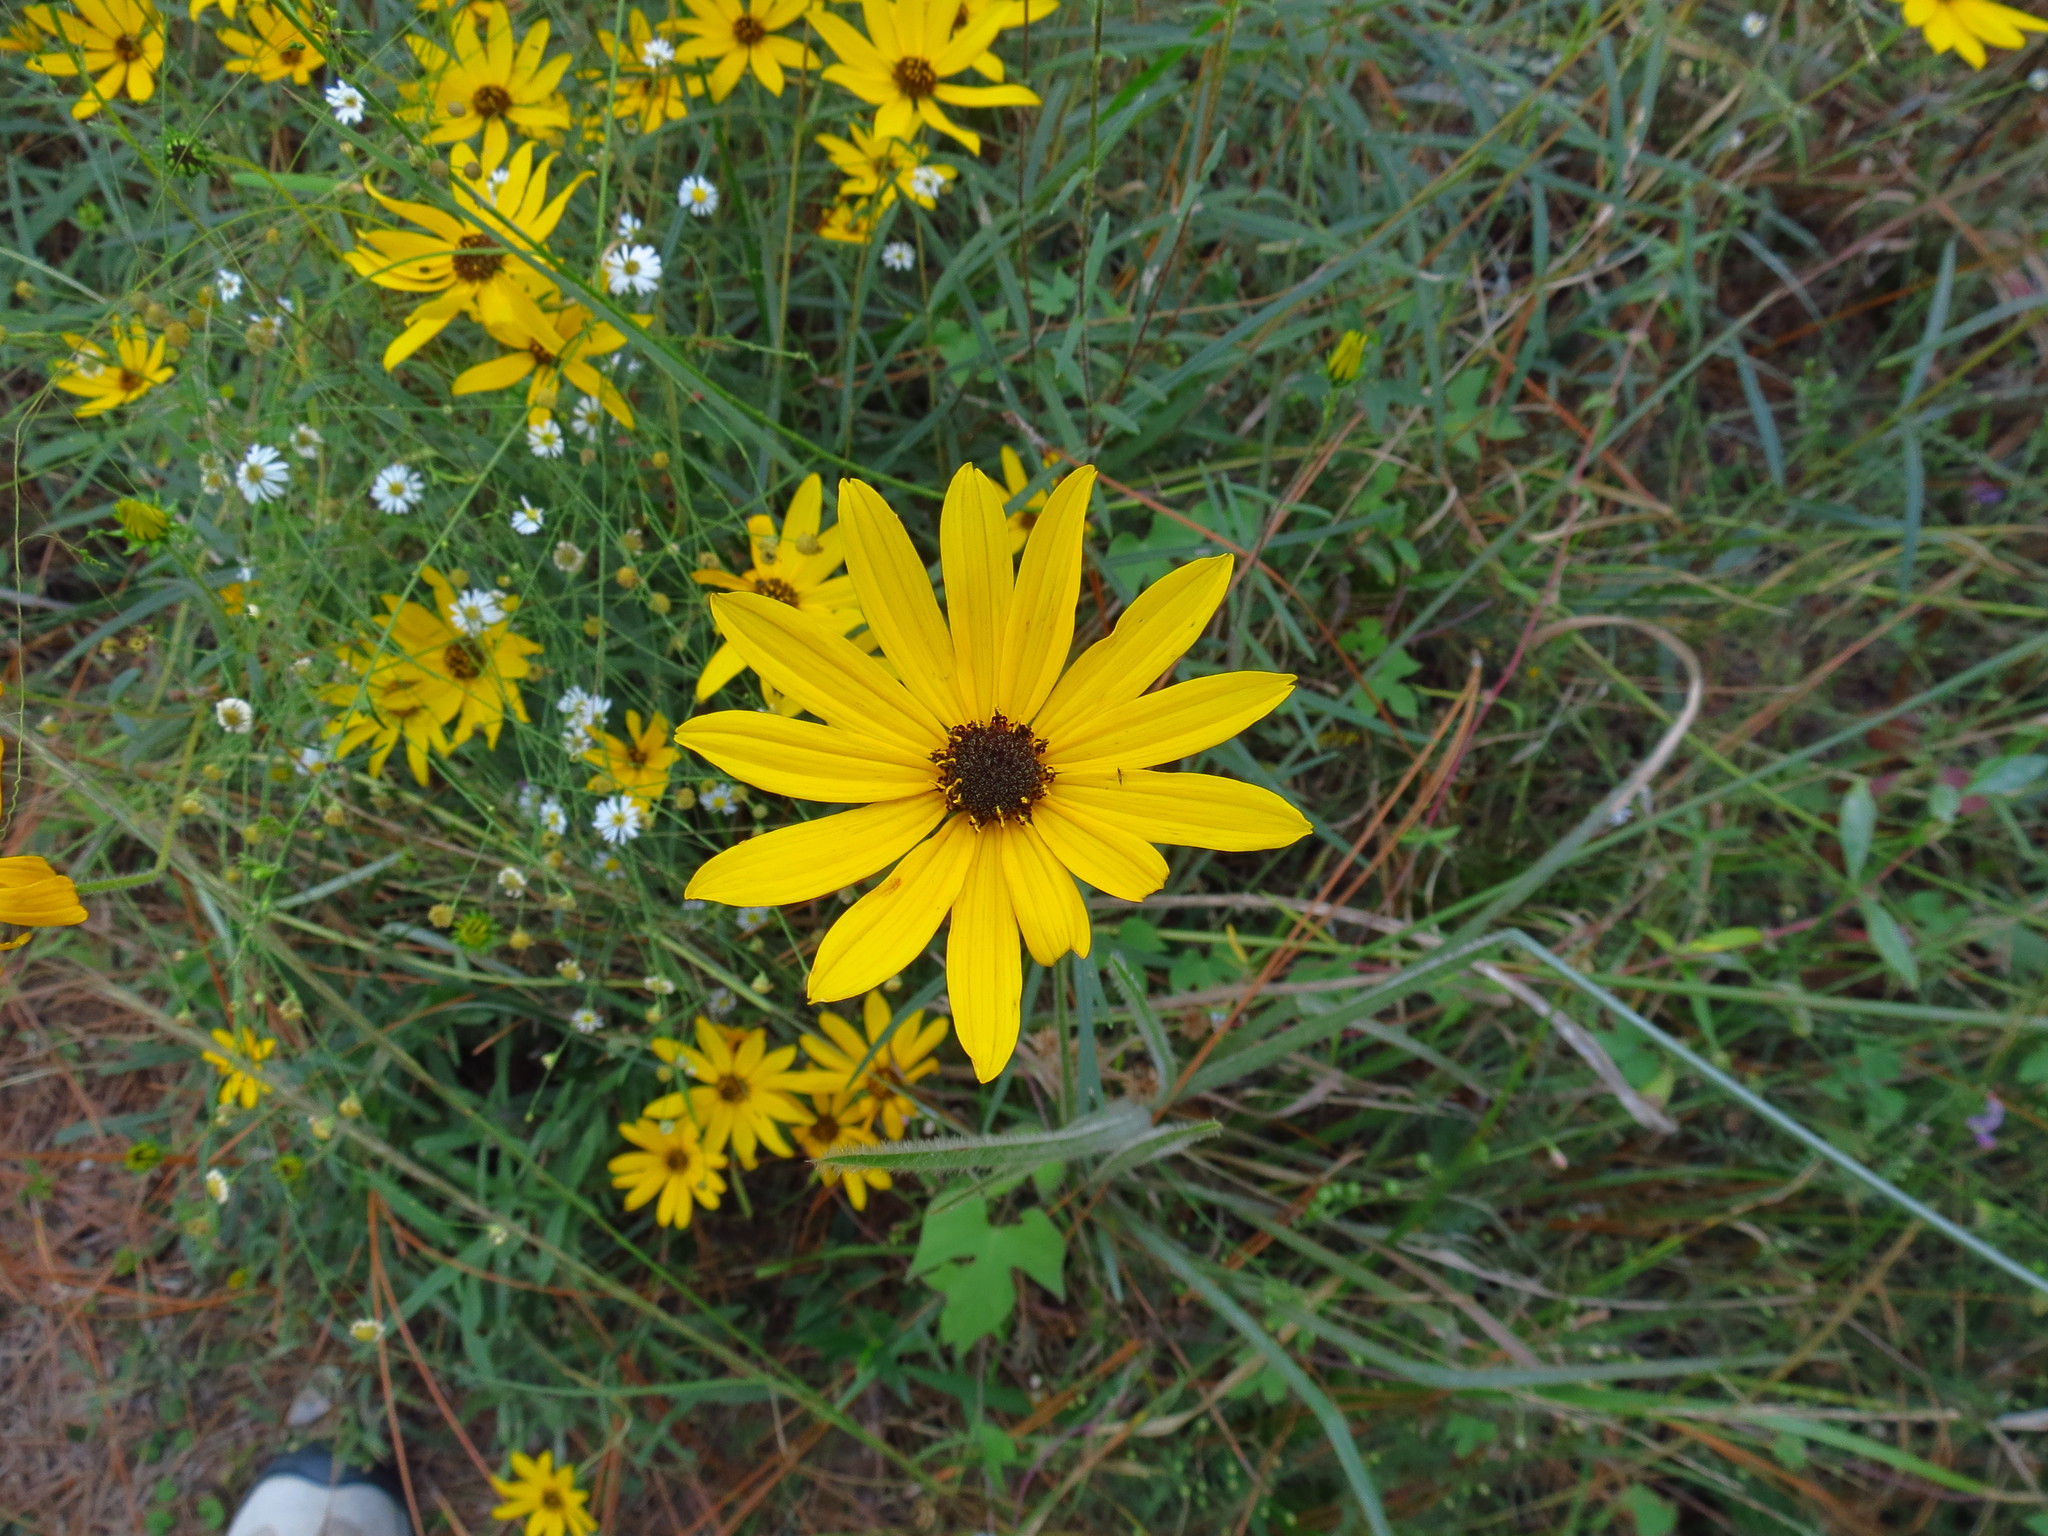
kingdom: Plantae
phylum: Tracheophyta
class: Magnoliopsida
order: Asterales
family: Asteraceae
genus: Helianthus
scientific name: Helianthus angustifolius
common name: Swamp sunflower
